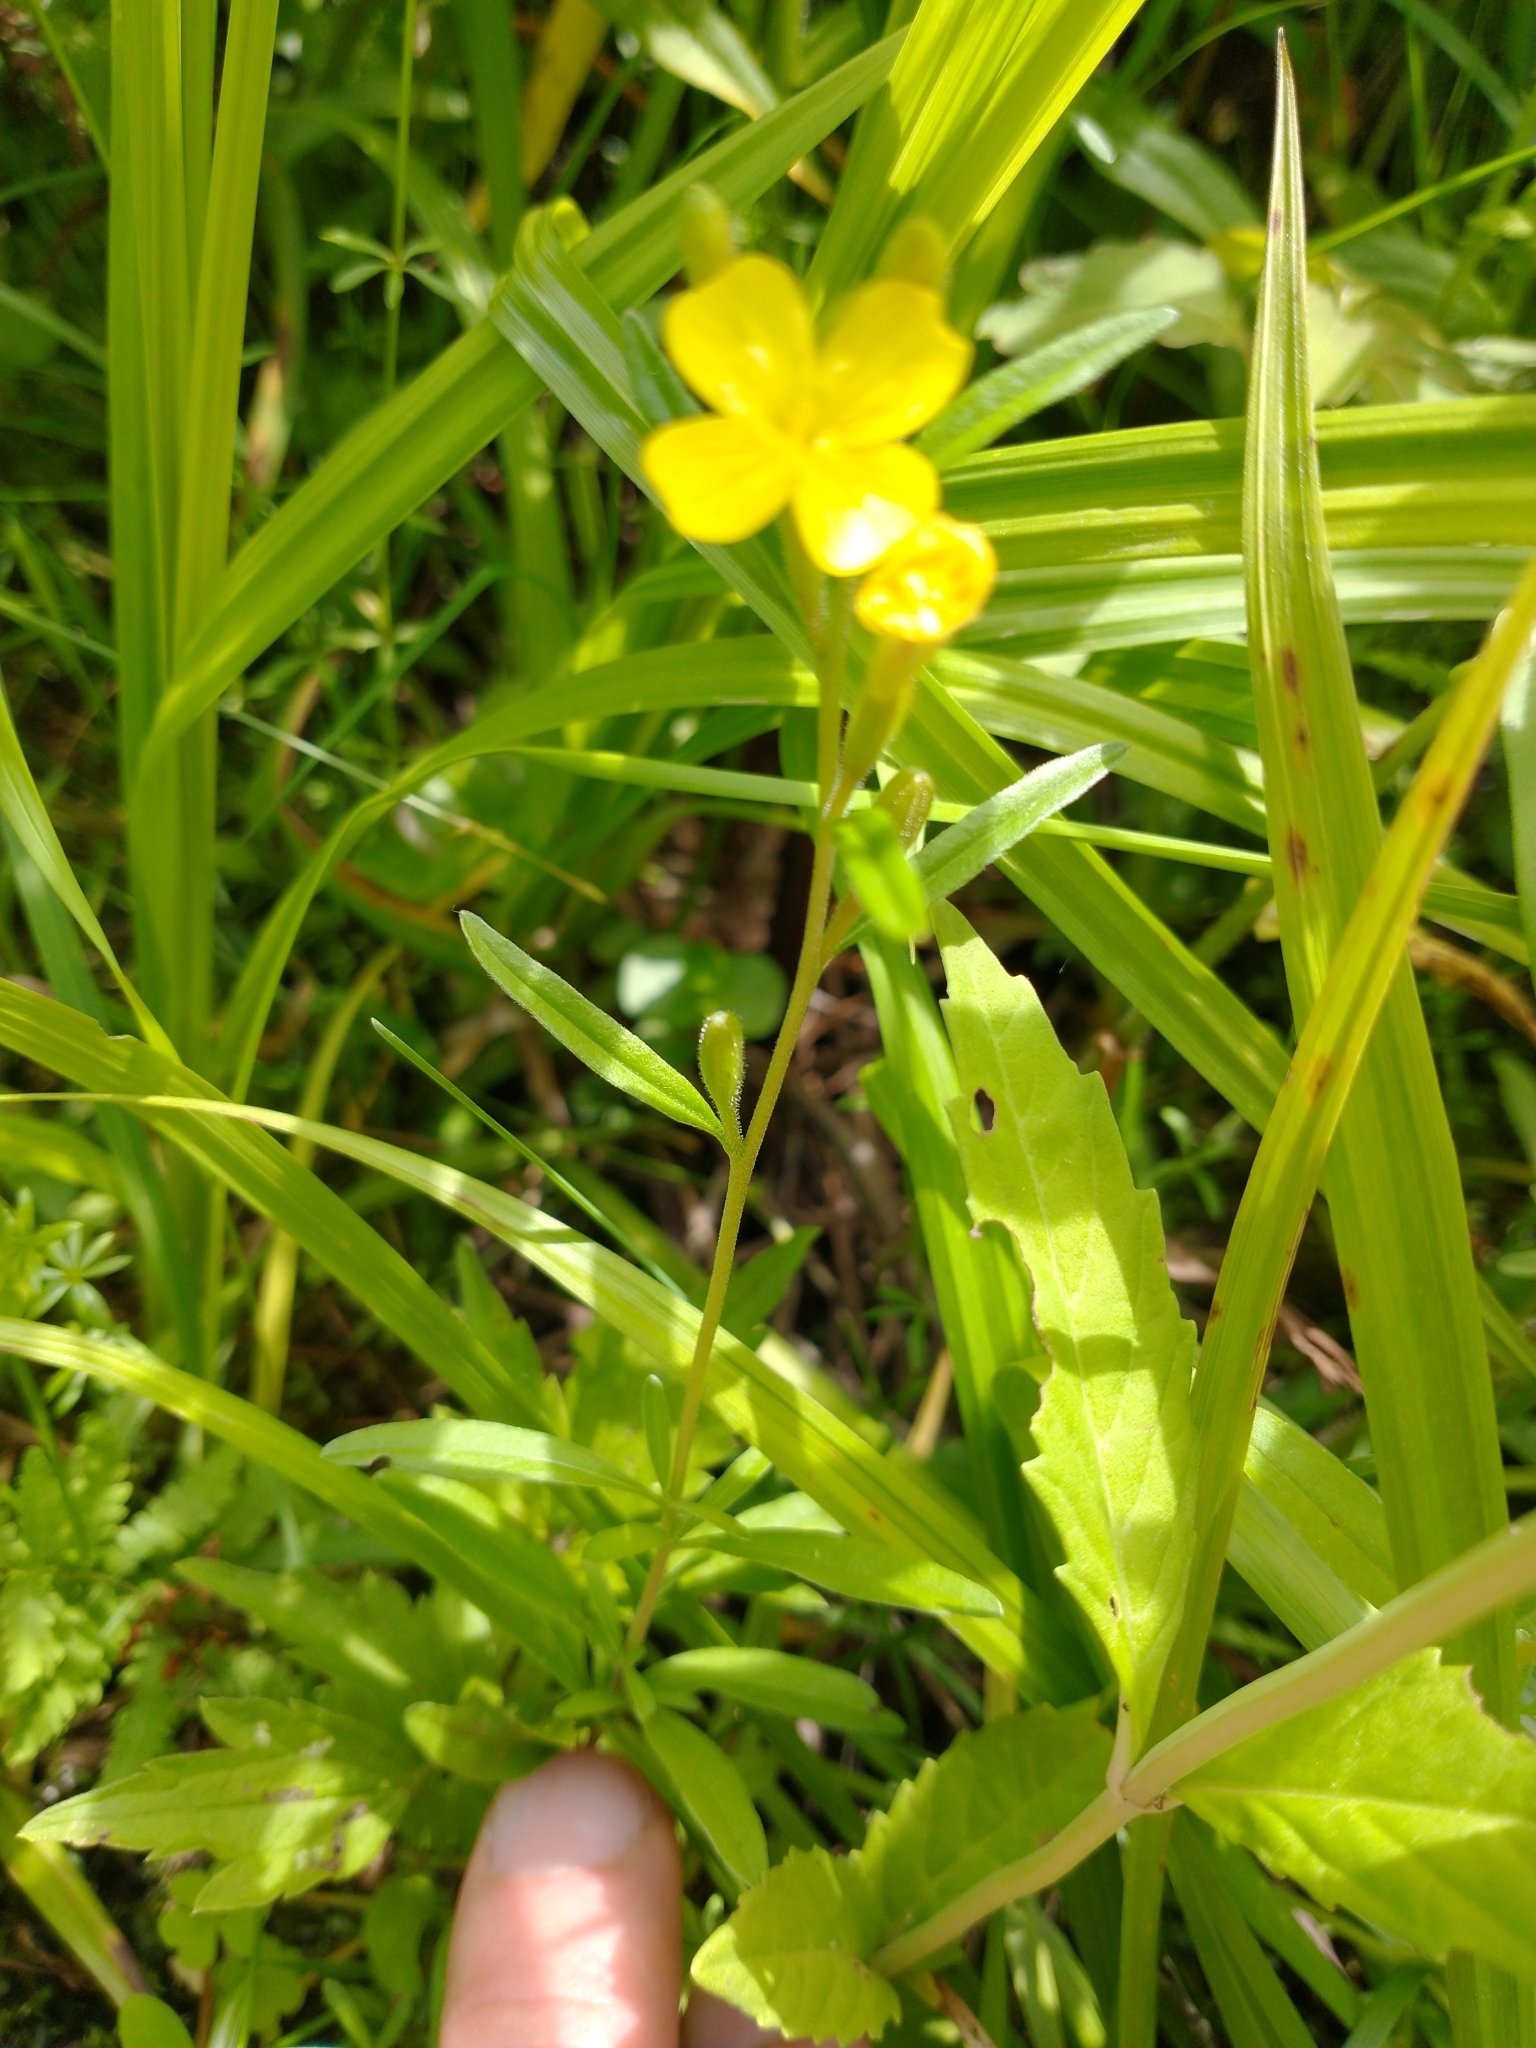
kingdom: Plantae
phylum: Tracheophyta
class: Magnoliopsida
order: Myrtales
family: Onagraceae
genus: Oenothera
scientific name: Oenothera perennis
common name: Small sundrops
